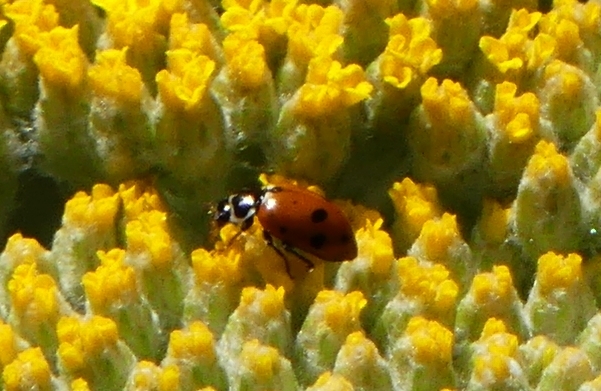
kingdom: Animalia
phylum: Arthropoda
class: Insecta
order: Coleoptera
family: Coccinellidae
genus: Hippodamia
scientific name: Hippodamia variegata
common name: Ladybird beetle
